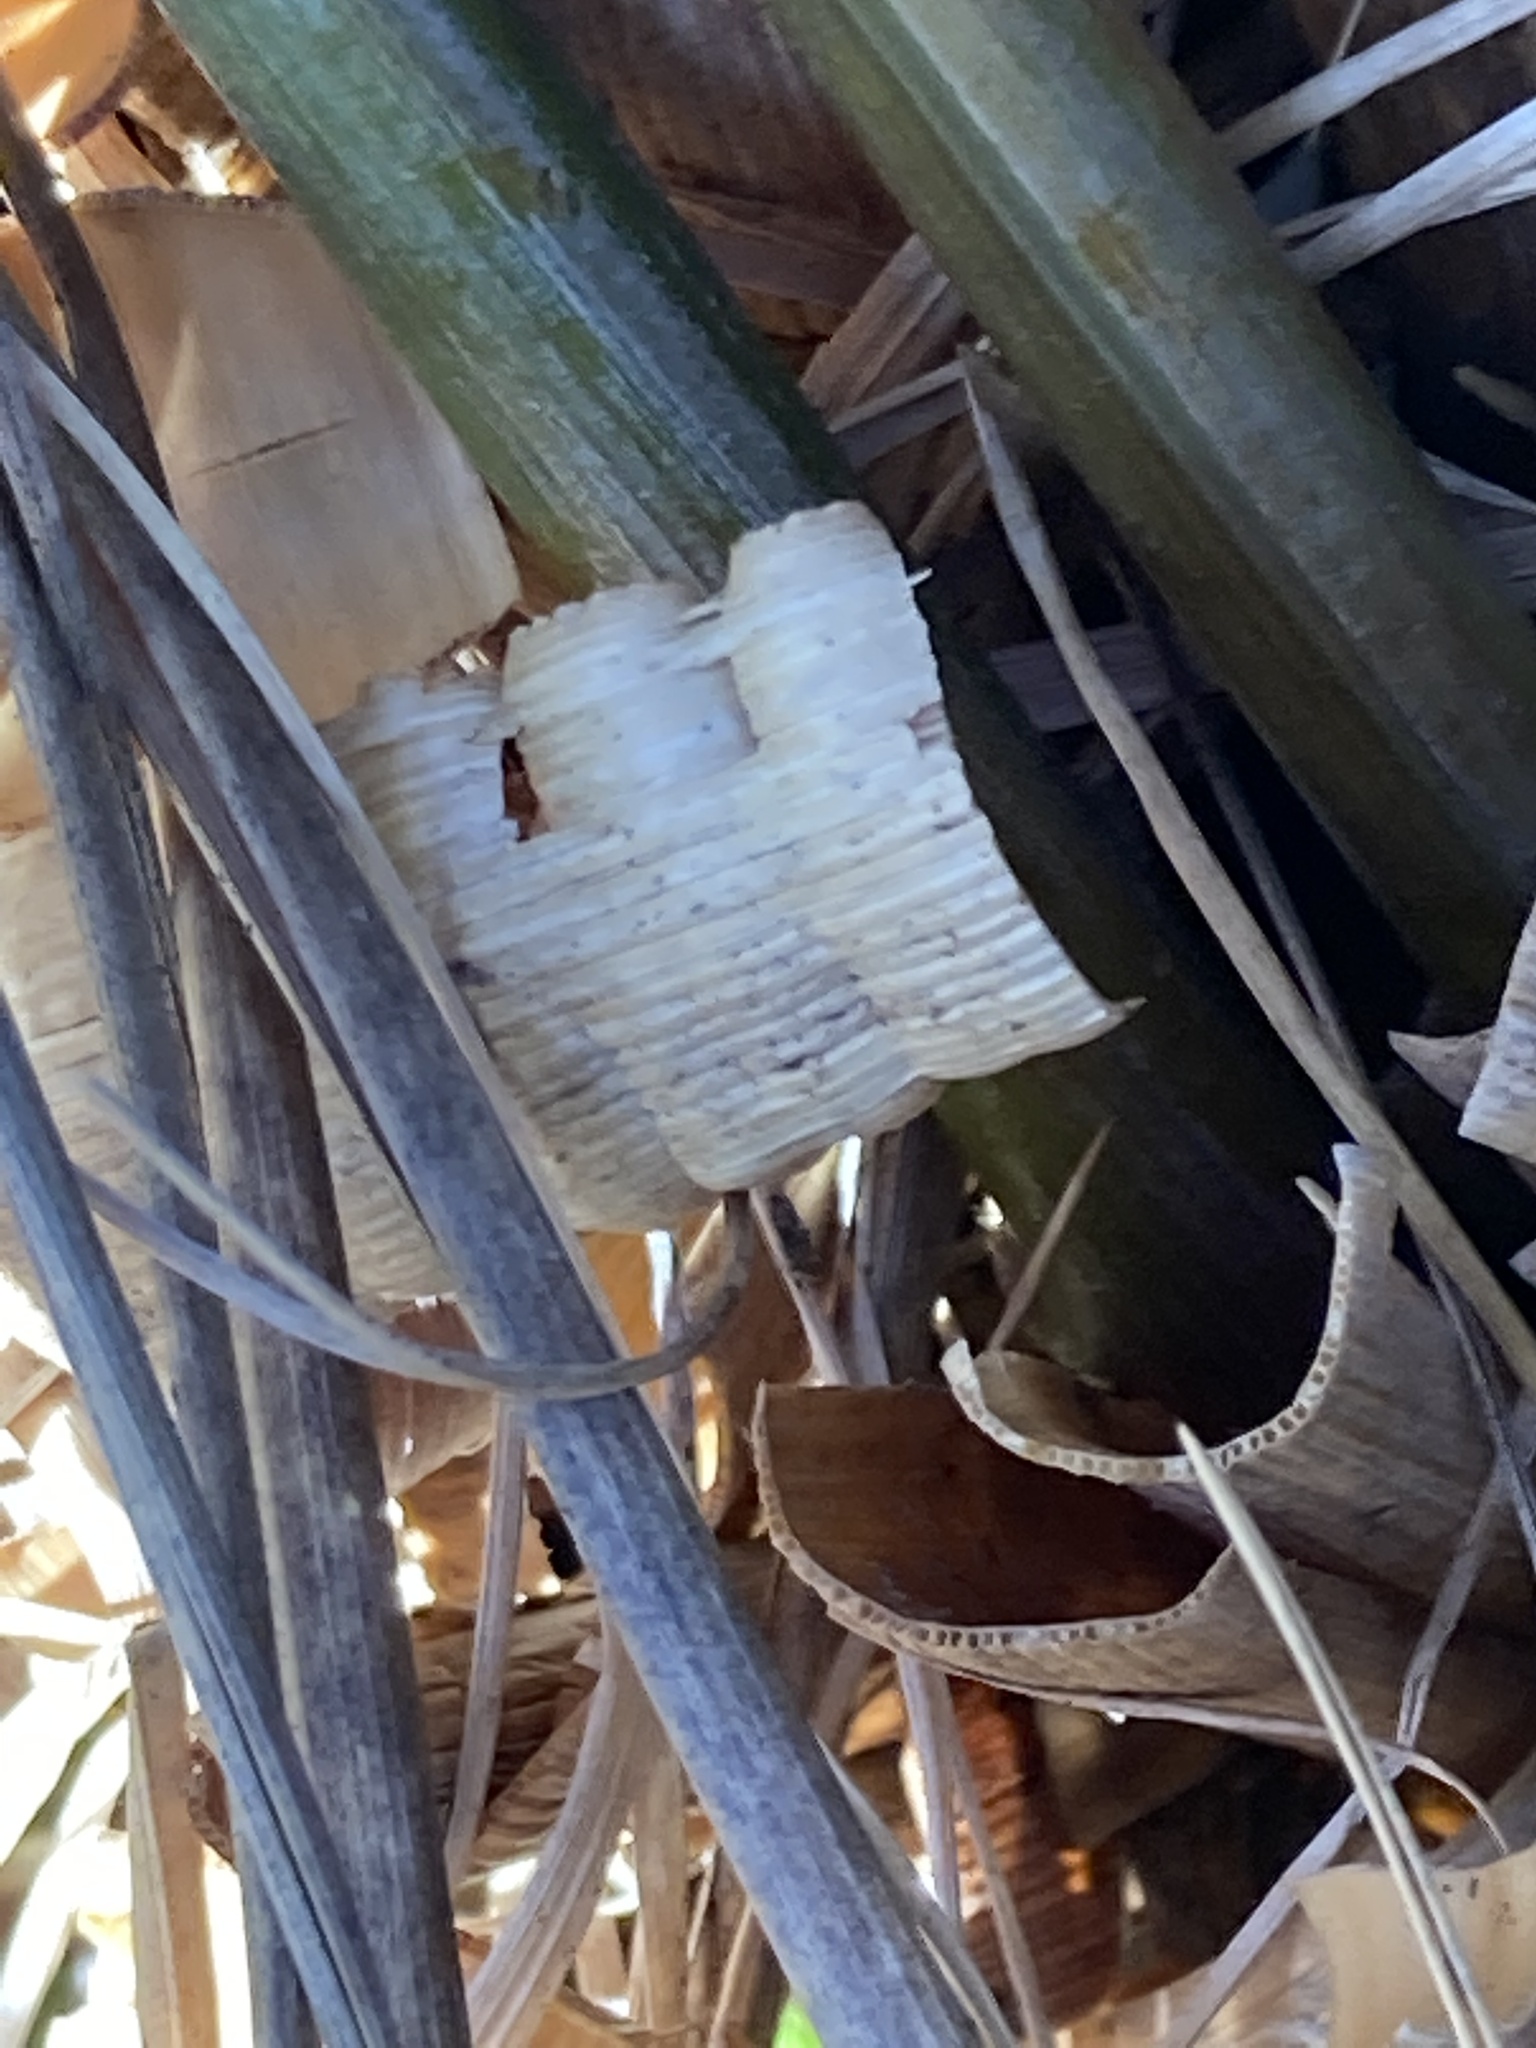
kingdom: Plantae
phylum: Tracheophyta
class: Liliopsida
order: Poales
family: Poaceae
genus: Chionochloa
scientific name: Chionochloa flavescens
